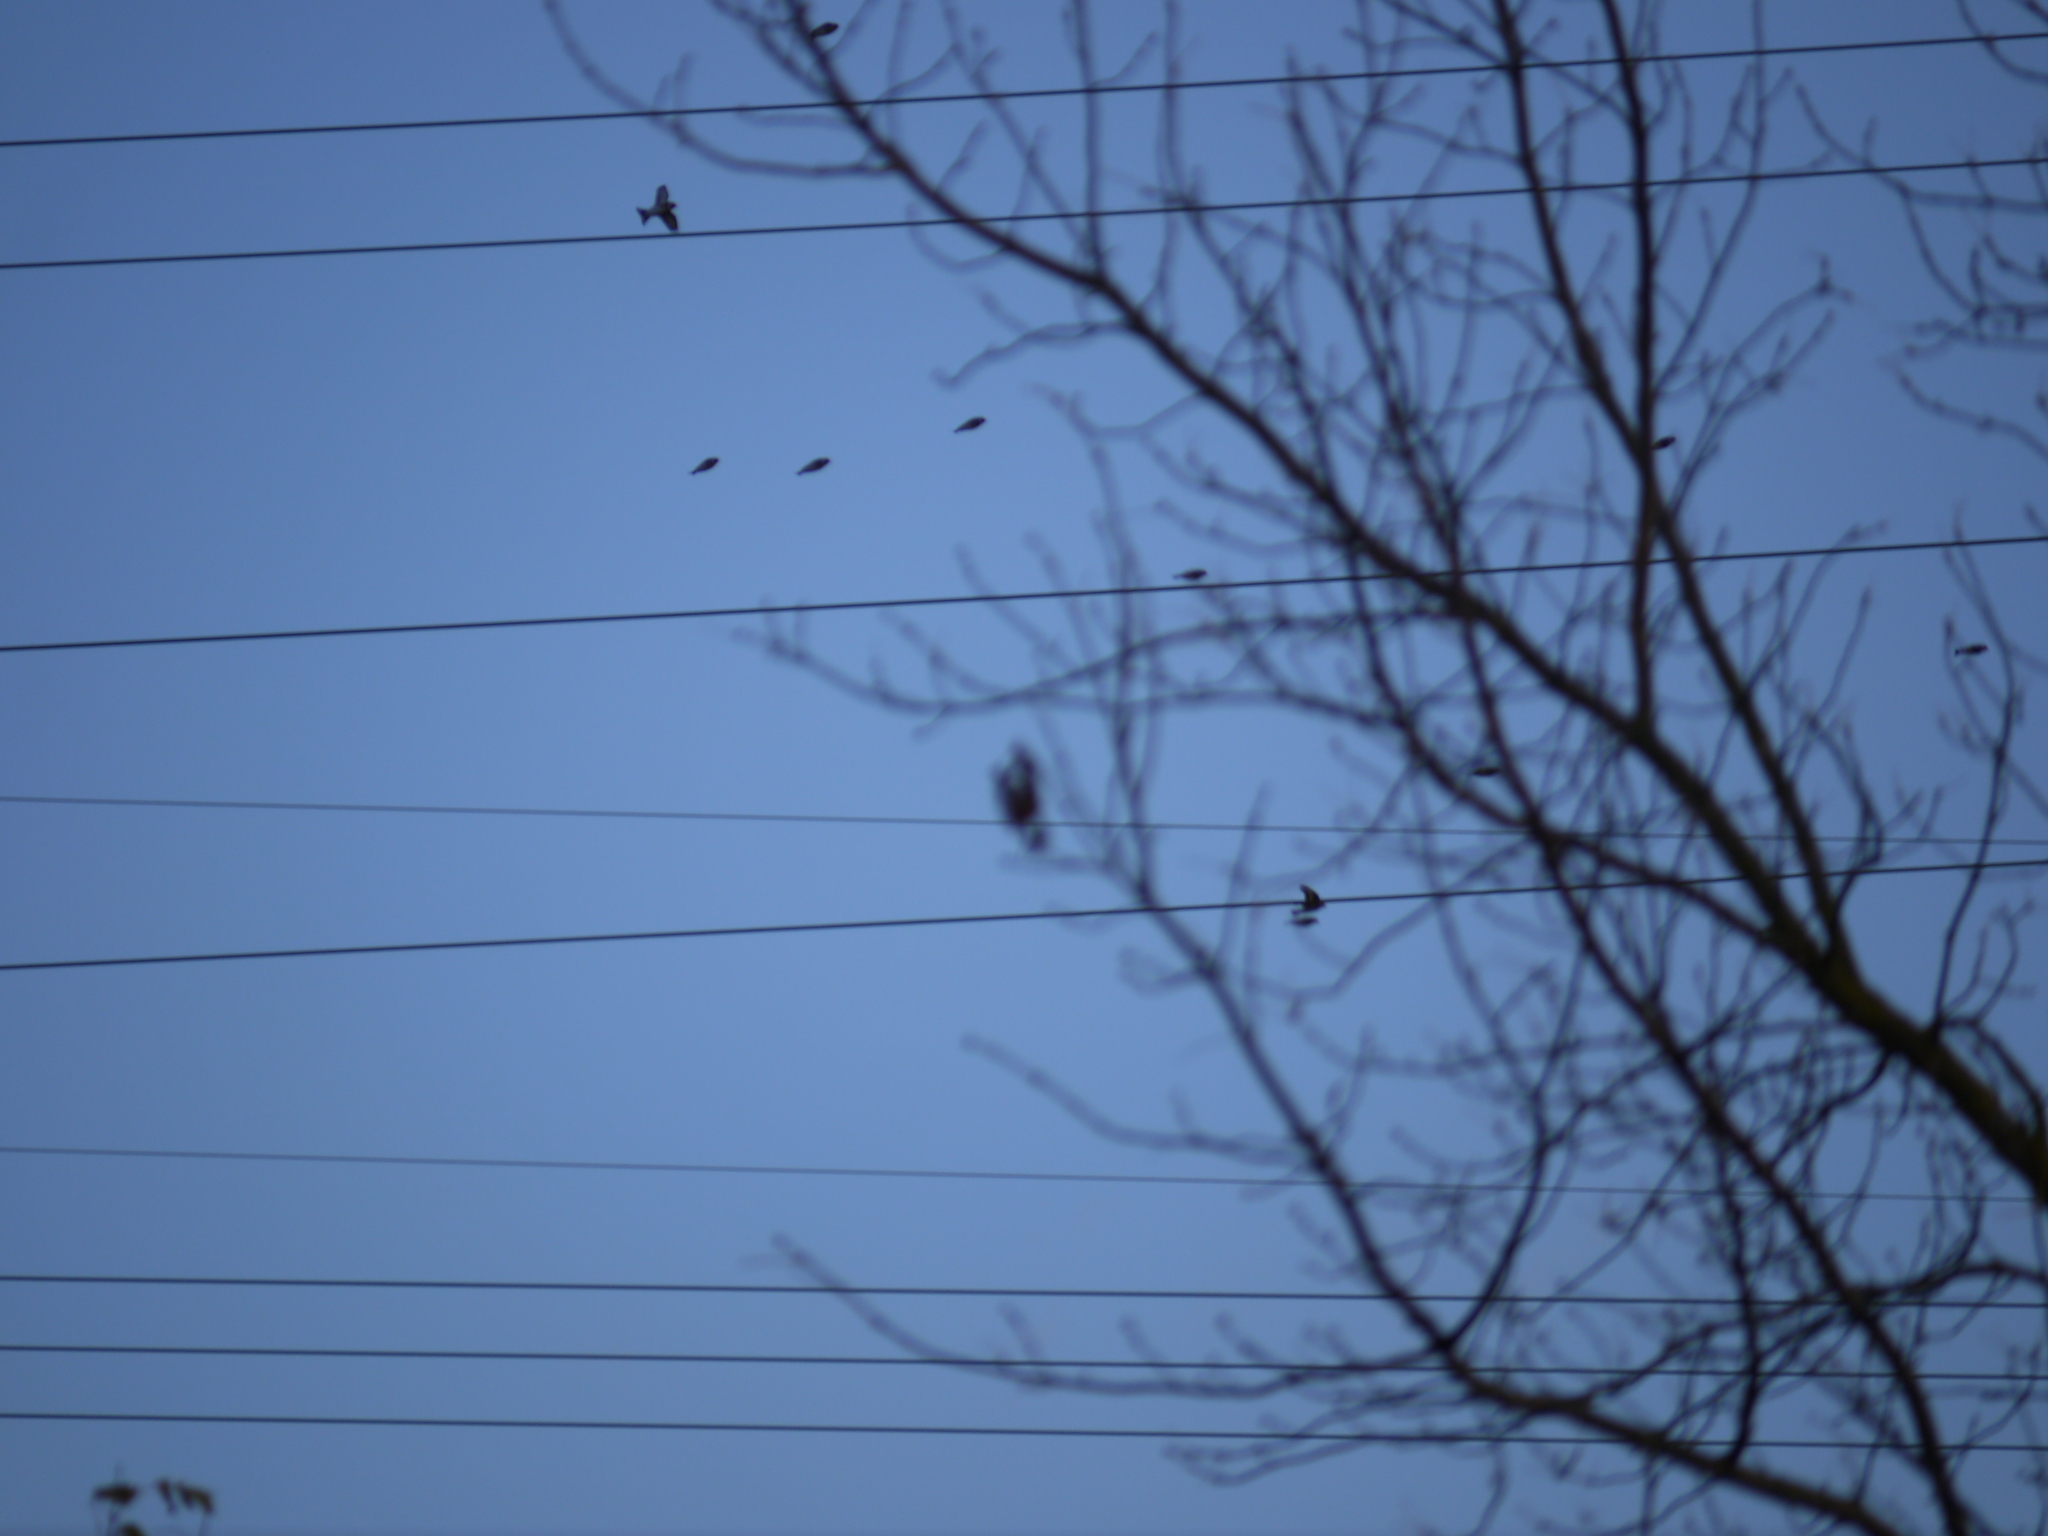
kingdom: Animalia
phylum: Chordata
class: Aves
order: Passeriformes
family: Fringillidae
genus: Carduelis
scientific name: Carduelis carduelis
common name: European goldfinch
